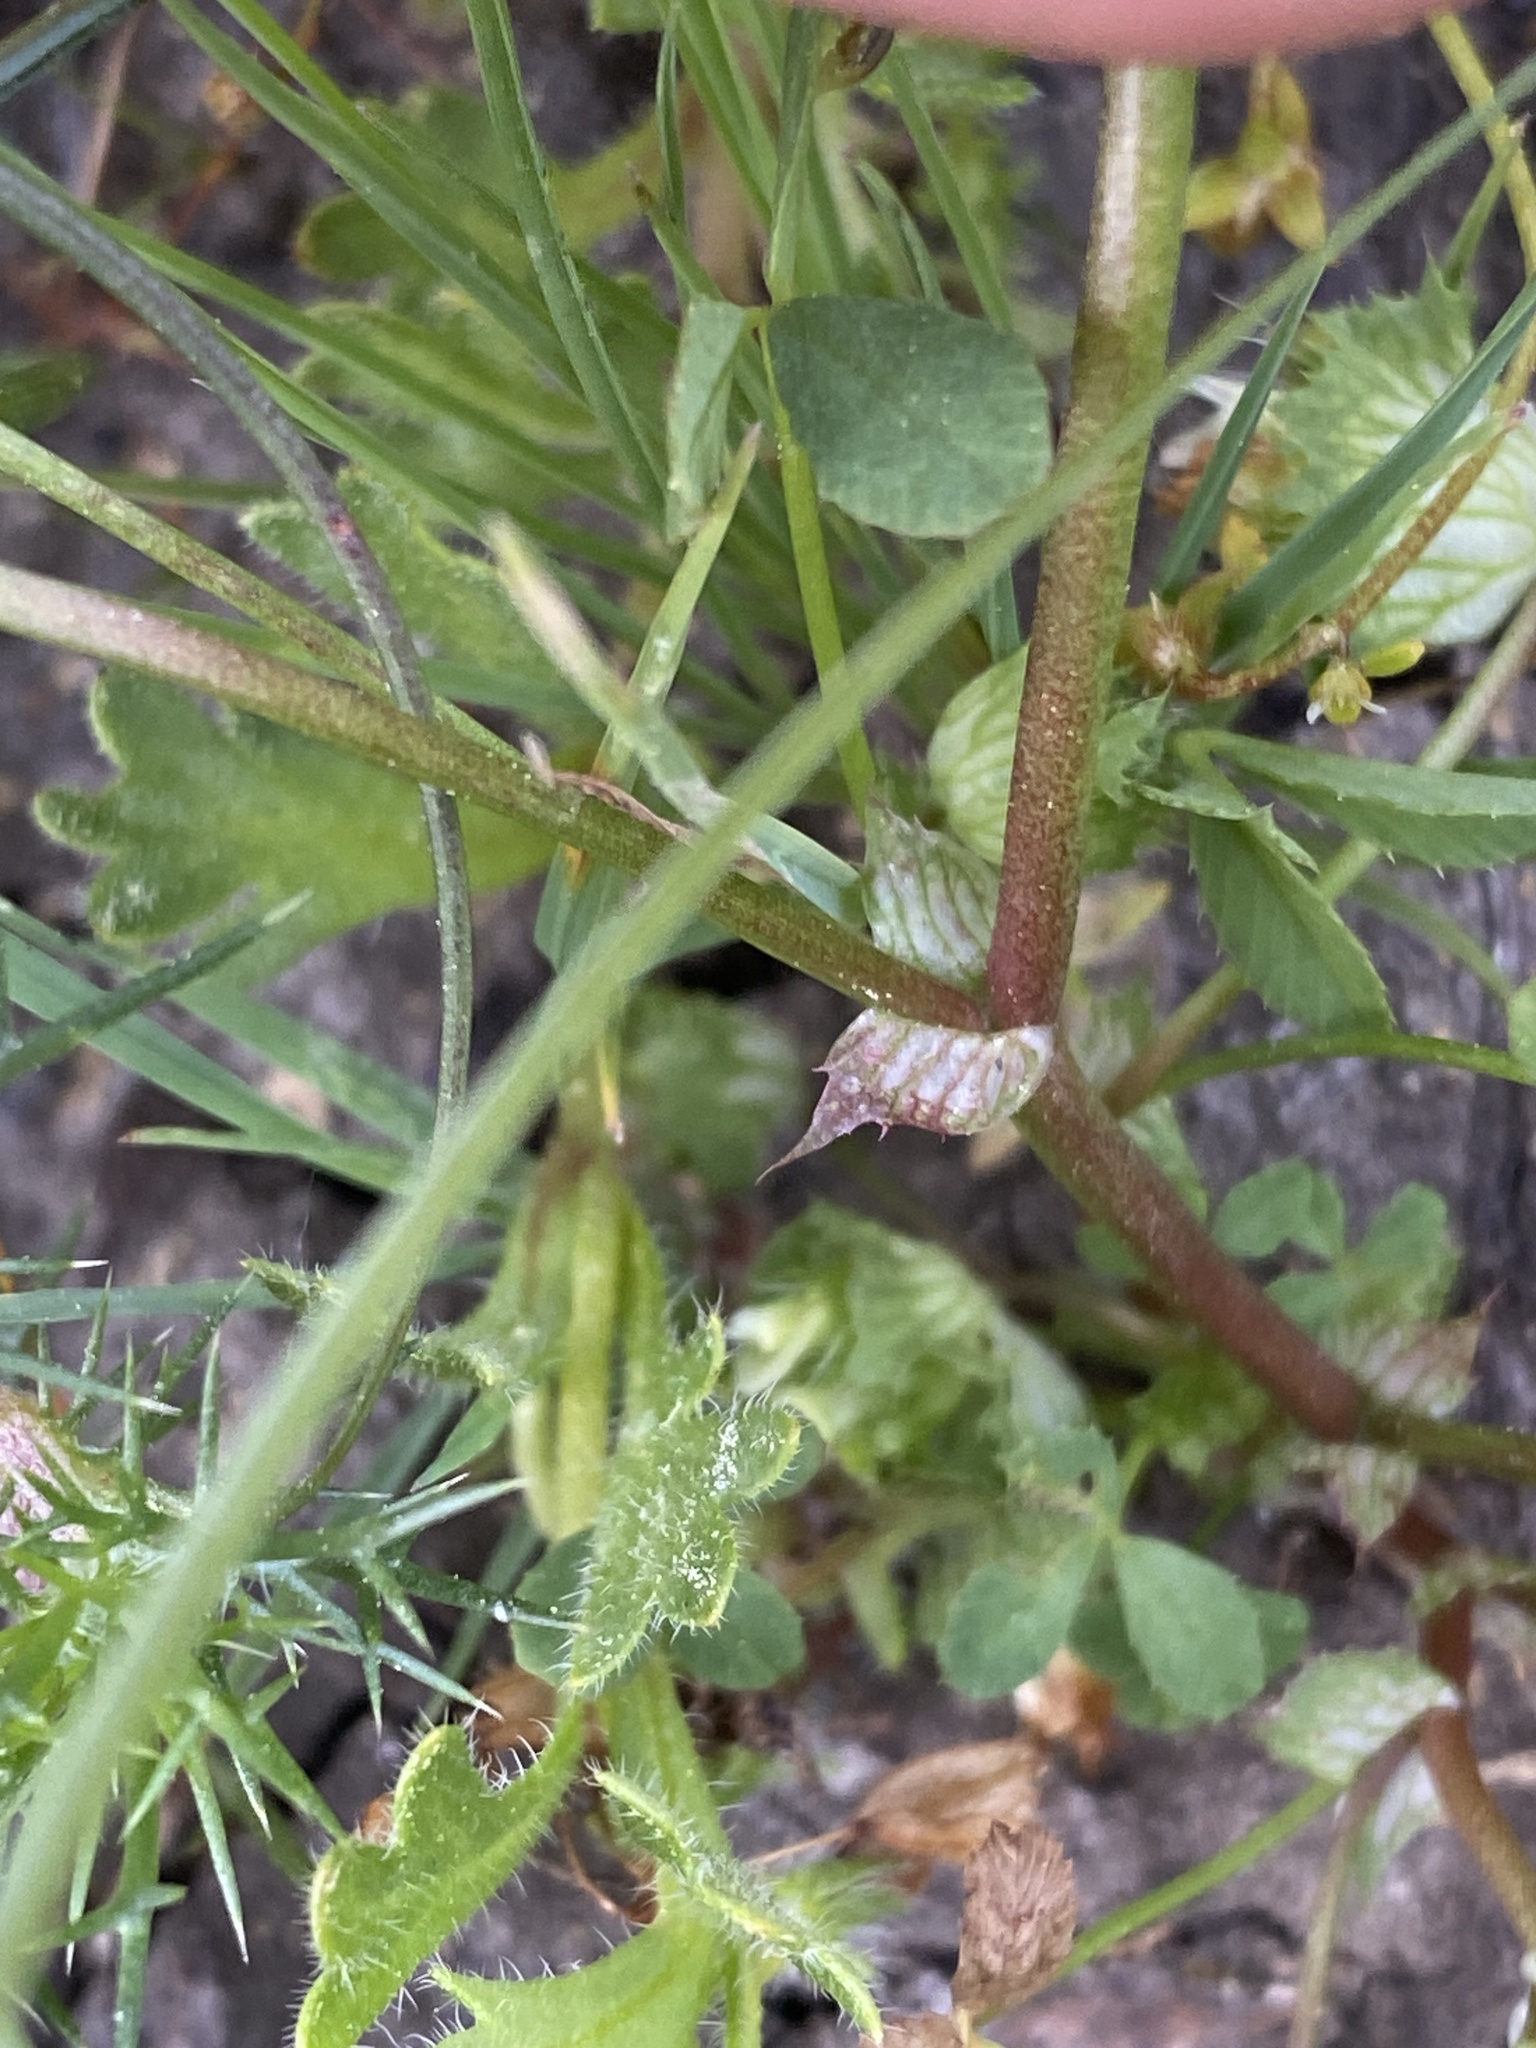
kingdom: Plantae
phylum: Tracheophyta
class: Magnoliopsida
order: Fabales
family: Fabaceae
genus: Trifolium
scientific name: Trifolium cyathiferum
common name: Bowl clover
